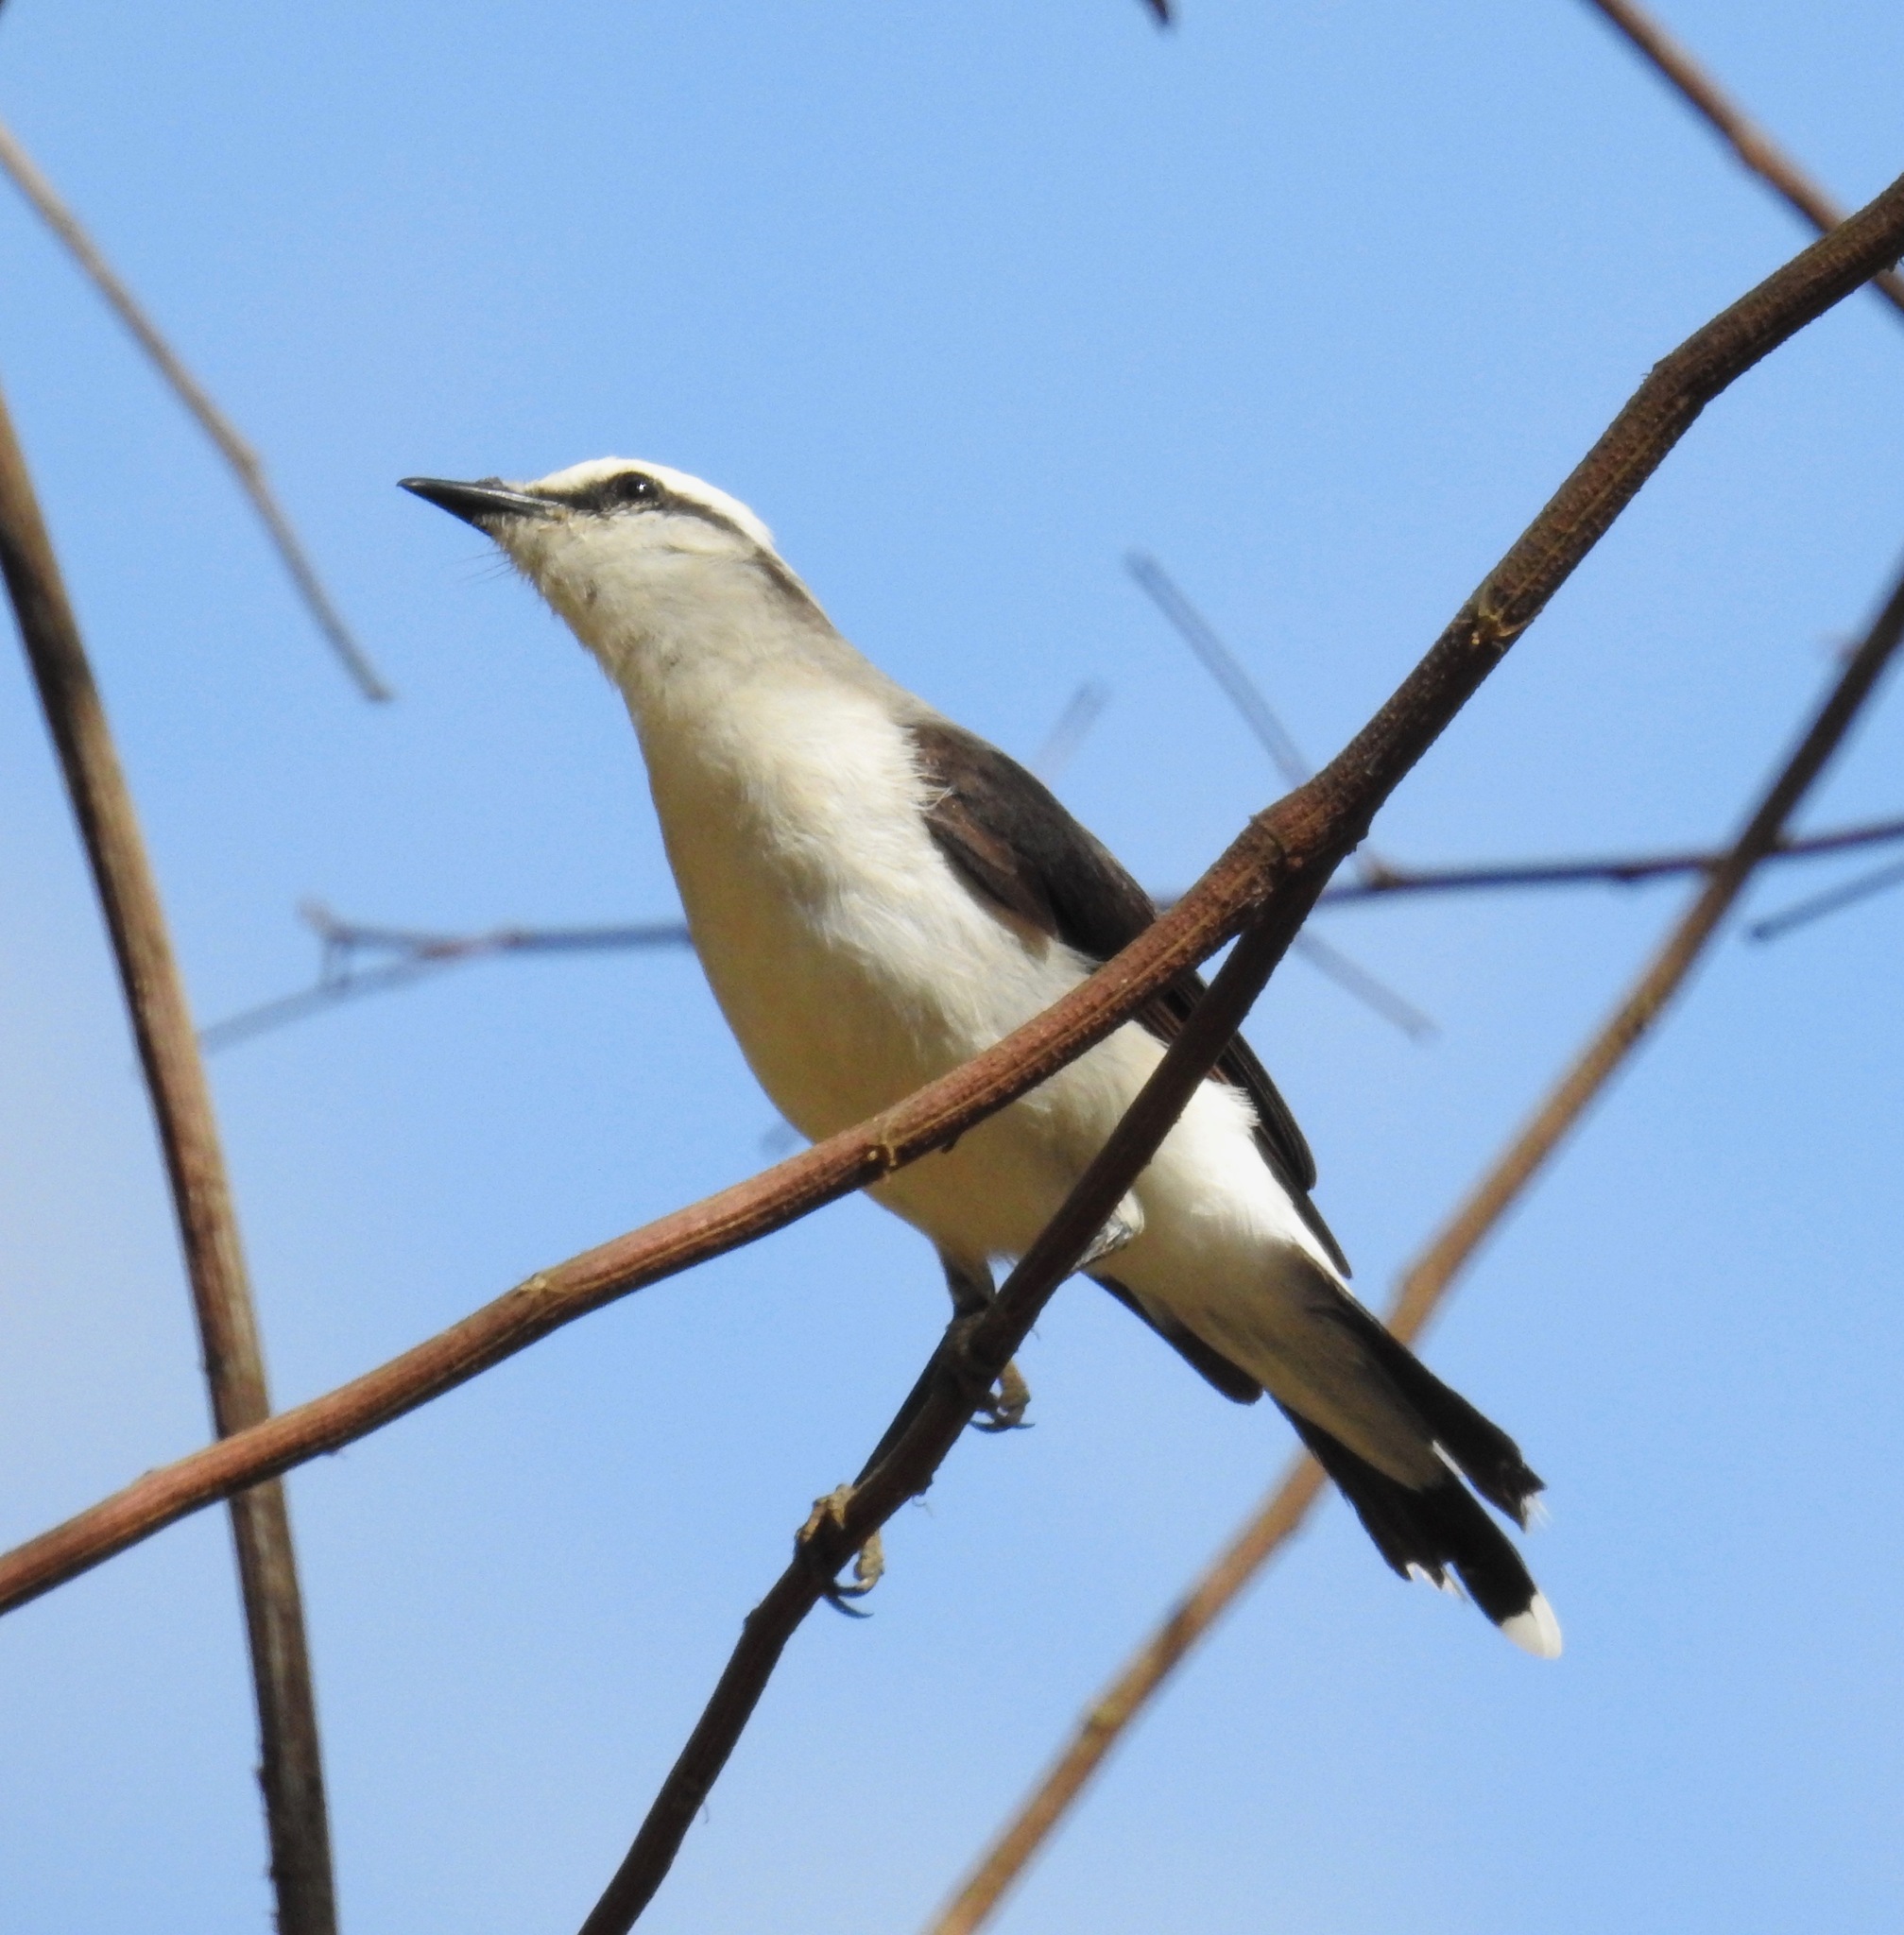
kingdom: Animalia
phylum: Chordata
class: Aves
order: Passeriformes
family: Tyrannidae
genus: Fluvicola
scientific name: Fluvicola nengeta
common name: Masked water tyrant
